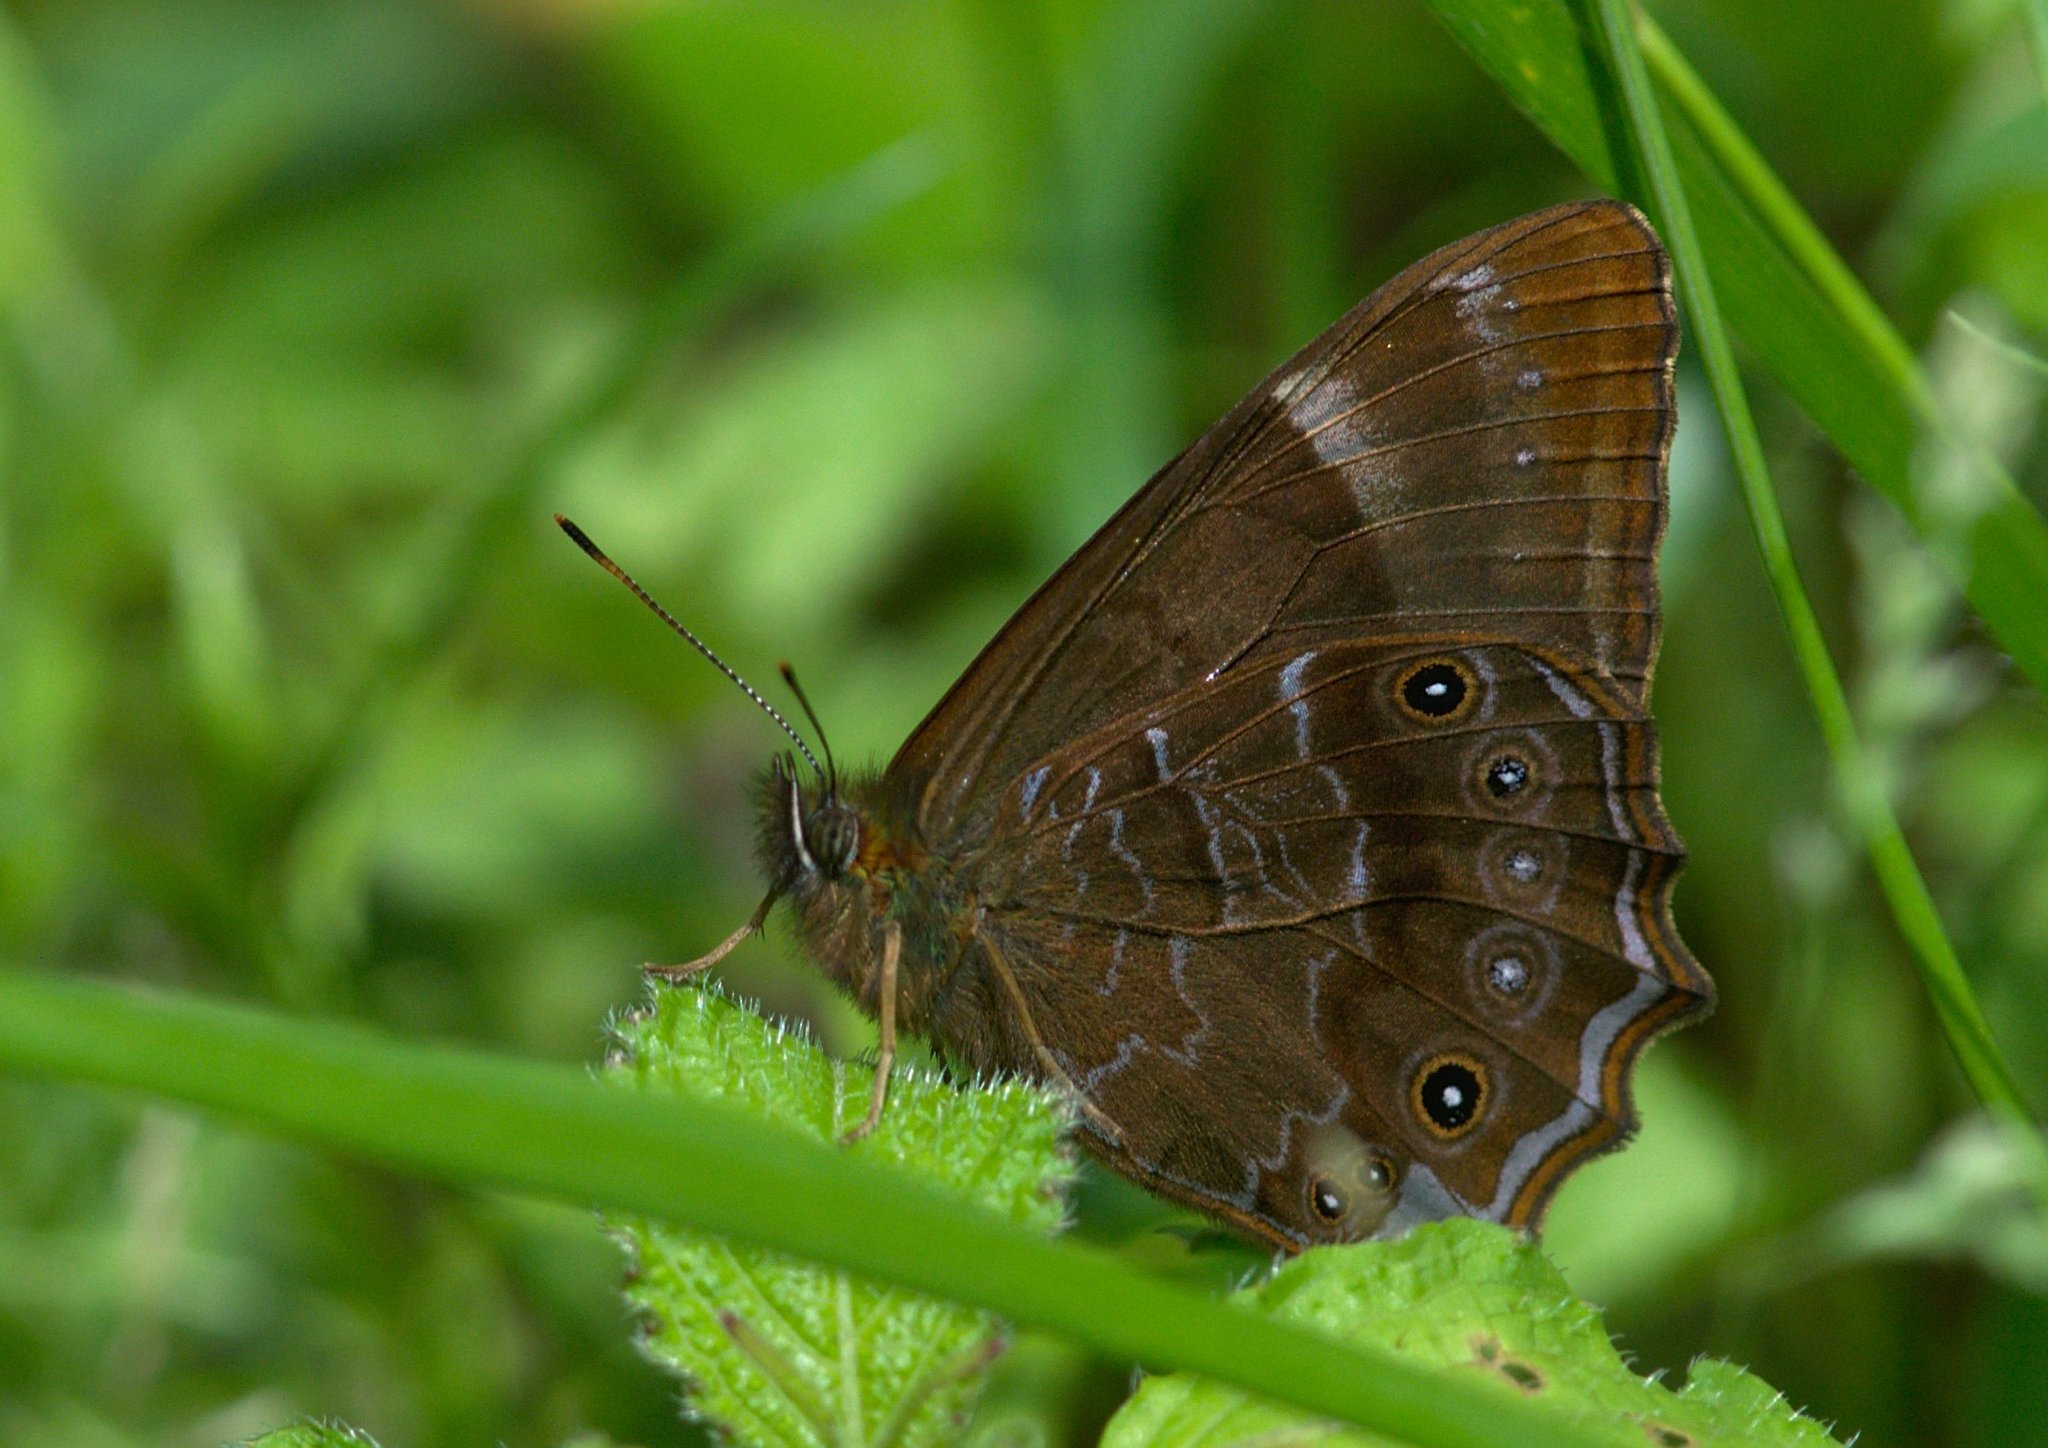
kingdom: Animalia
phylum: Arthropoda
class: Insecta
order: Lepidoptera
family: Nymphalidae
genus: Lethe
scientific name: Lethe sidonis
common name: Common woodbrown butterfly
